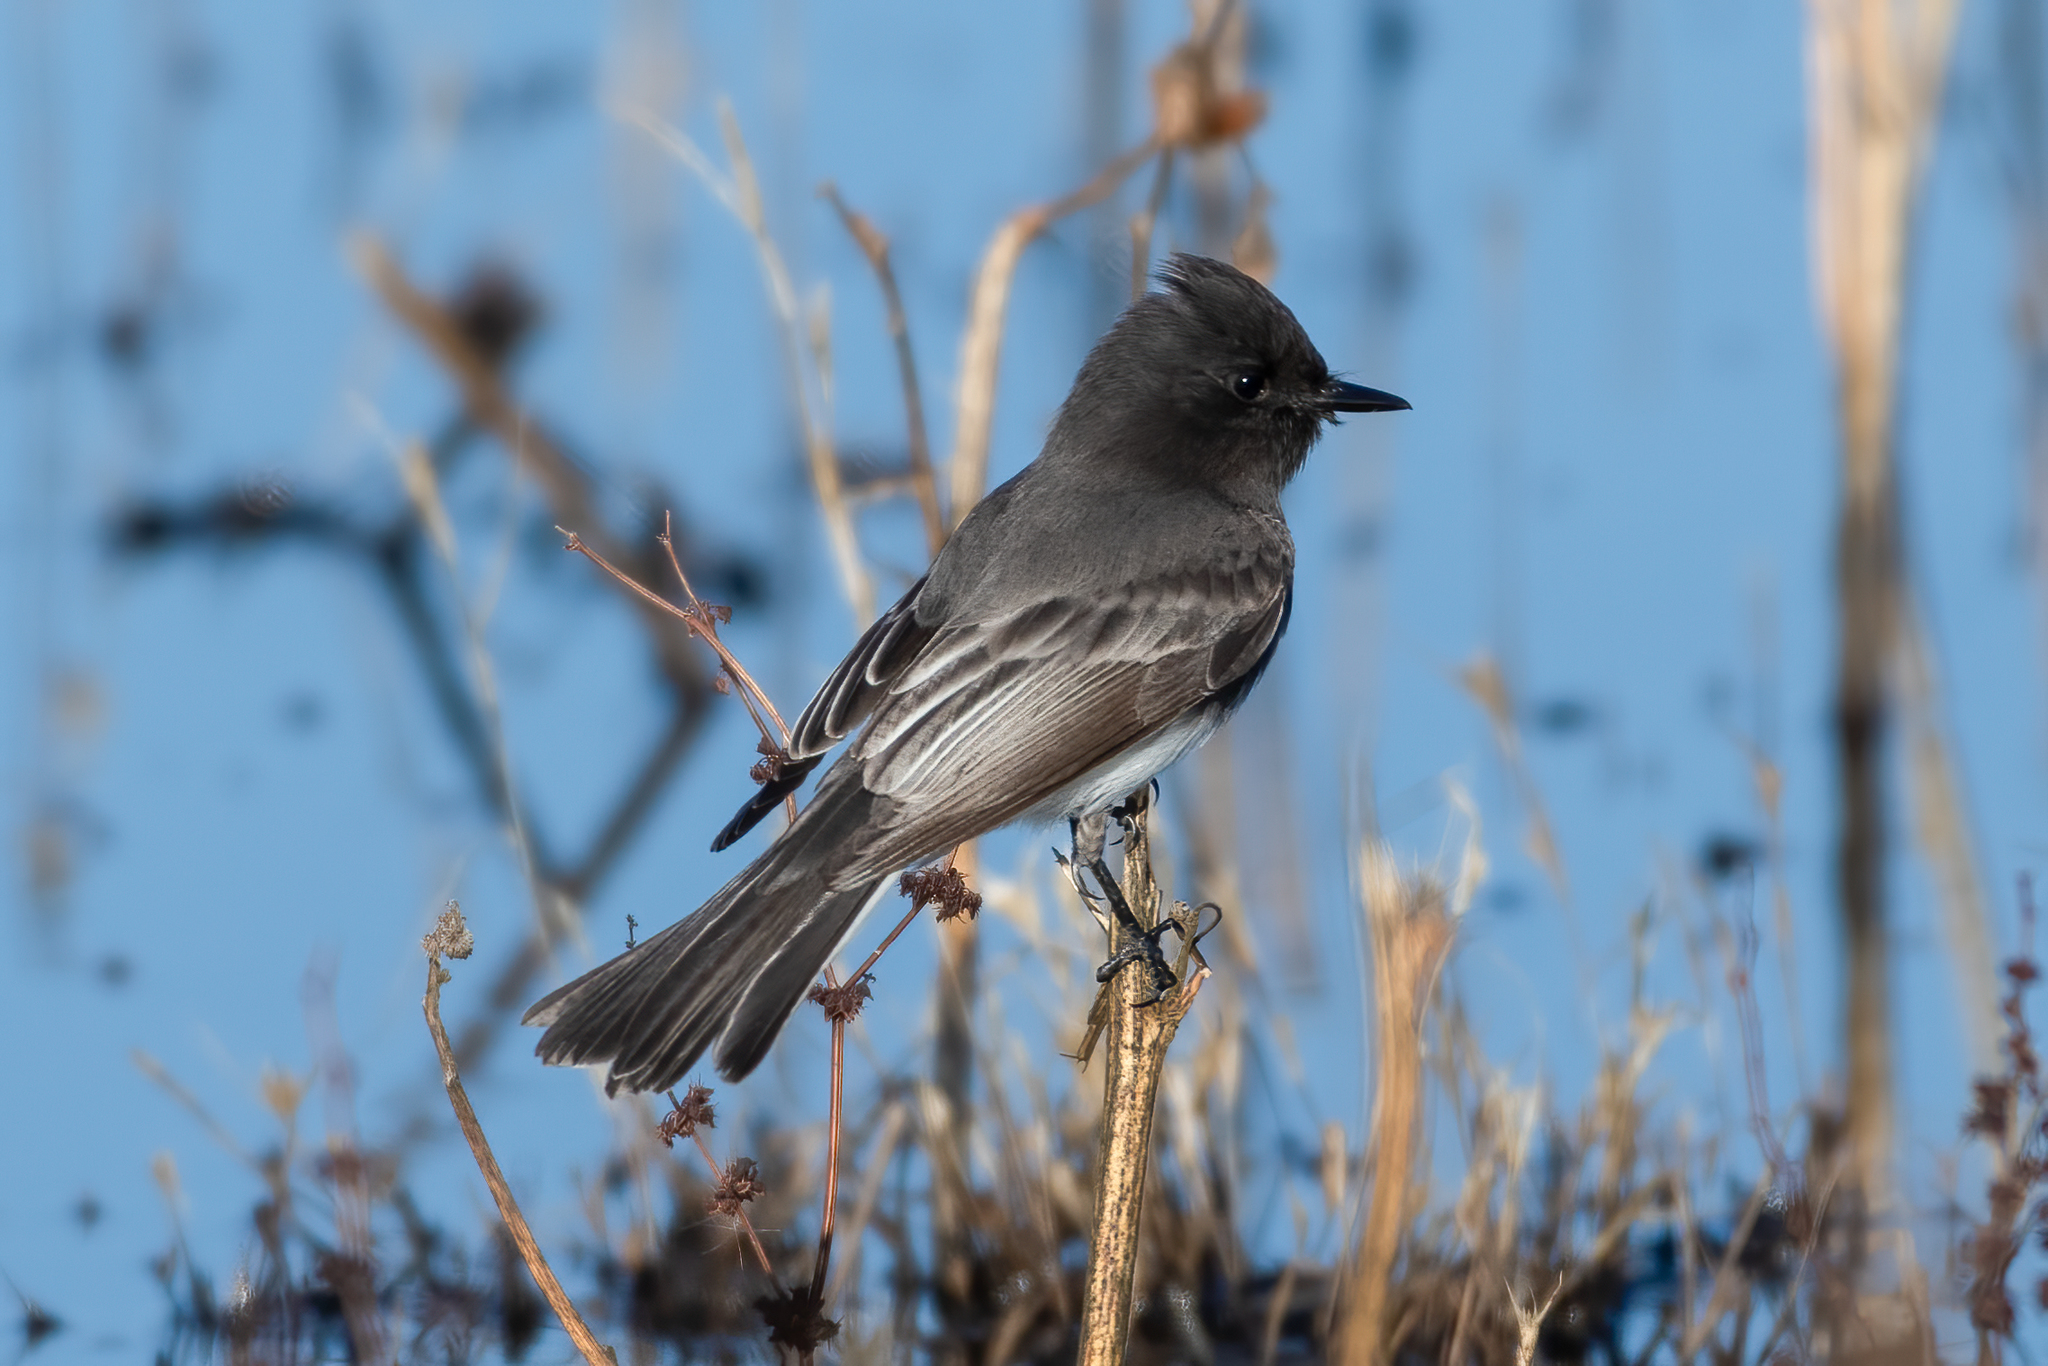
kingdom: Animalia
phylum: Chordata
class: Aves
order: Passeriformes
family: Tyrannidae
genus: Sayornis
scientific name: Sayornis nigricans
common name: Black phoebe
